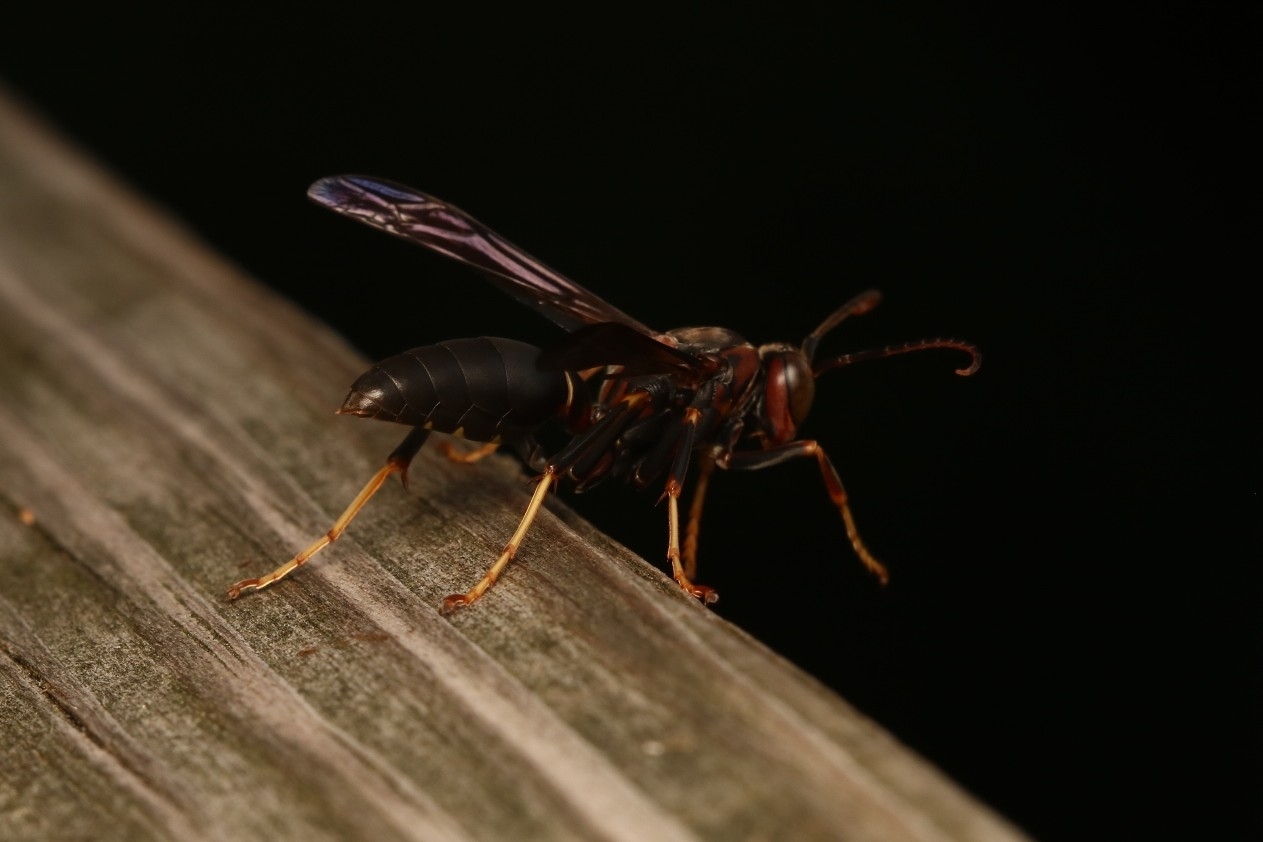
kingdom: Animalia
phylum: Arthropoda
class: Insecta
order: Hymenoptera
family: Eumenidae
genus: Polistes
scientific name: Polistes metricus
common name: Metric paper wasp
